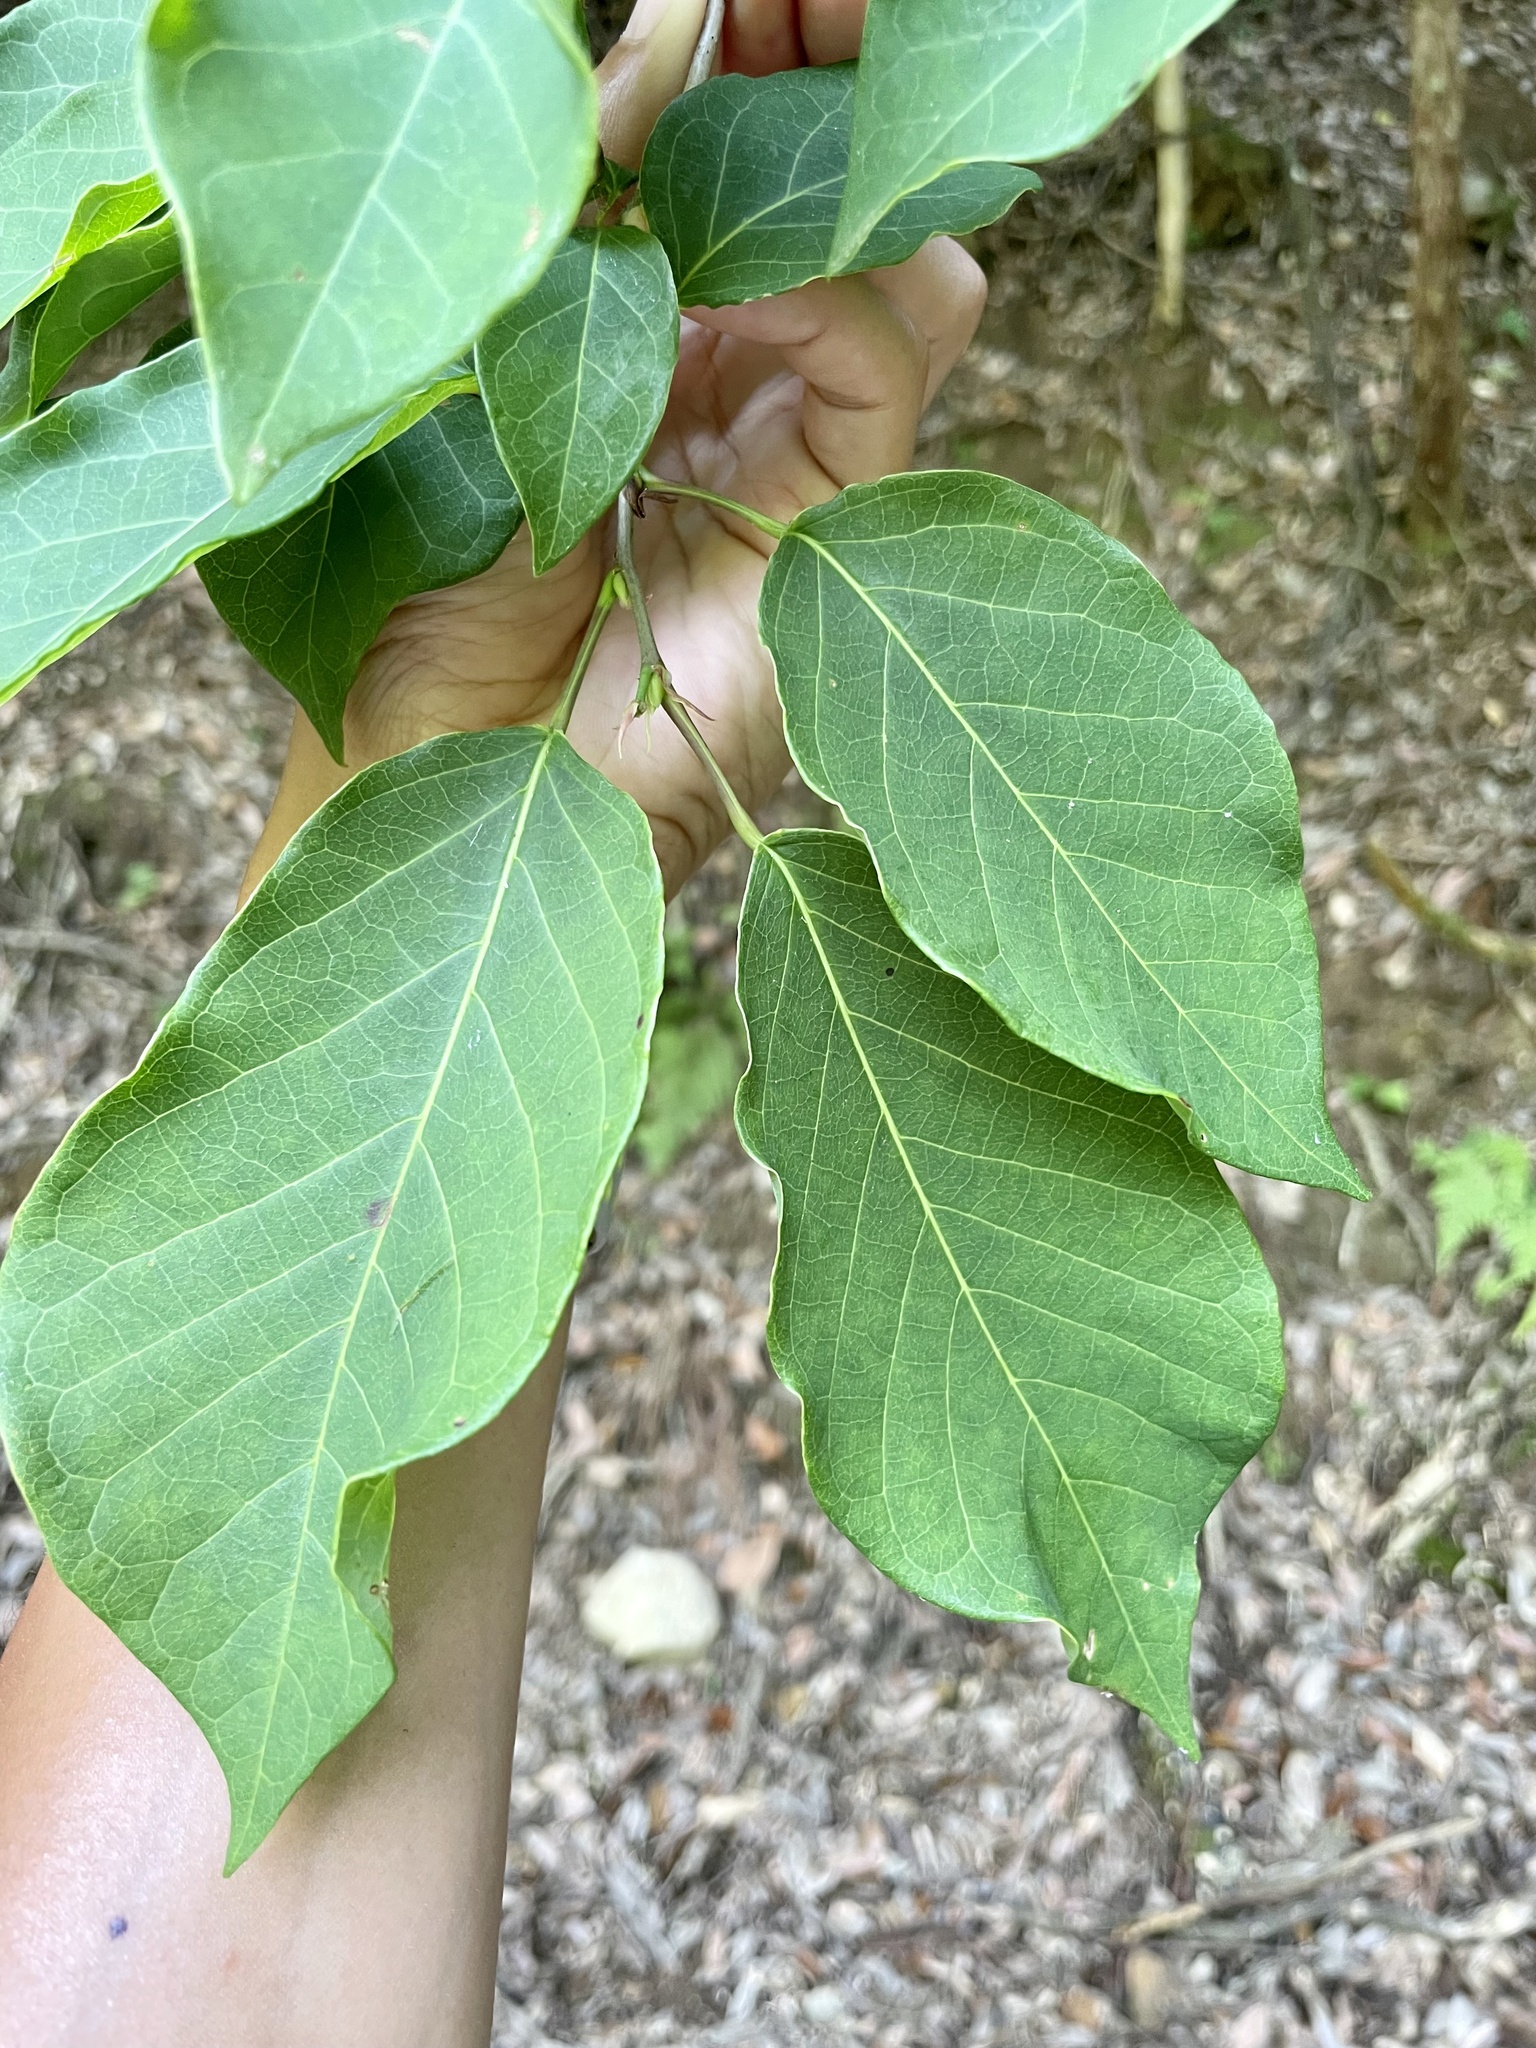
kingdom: Plantae
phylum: Tracheophyta
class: Magnoliopsida
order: Malpighiales
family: Euphorbiaceae
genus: Neoshirakia
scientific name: Neoshirakia japonica
